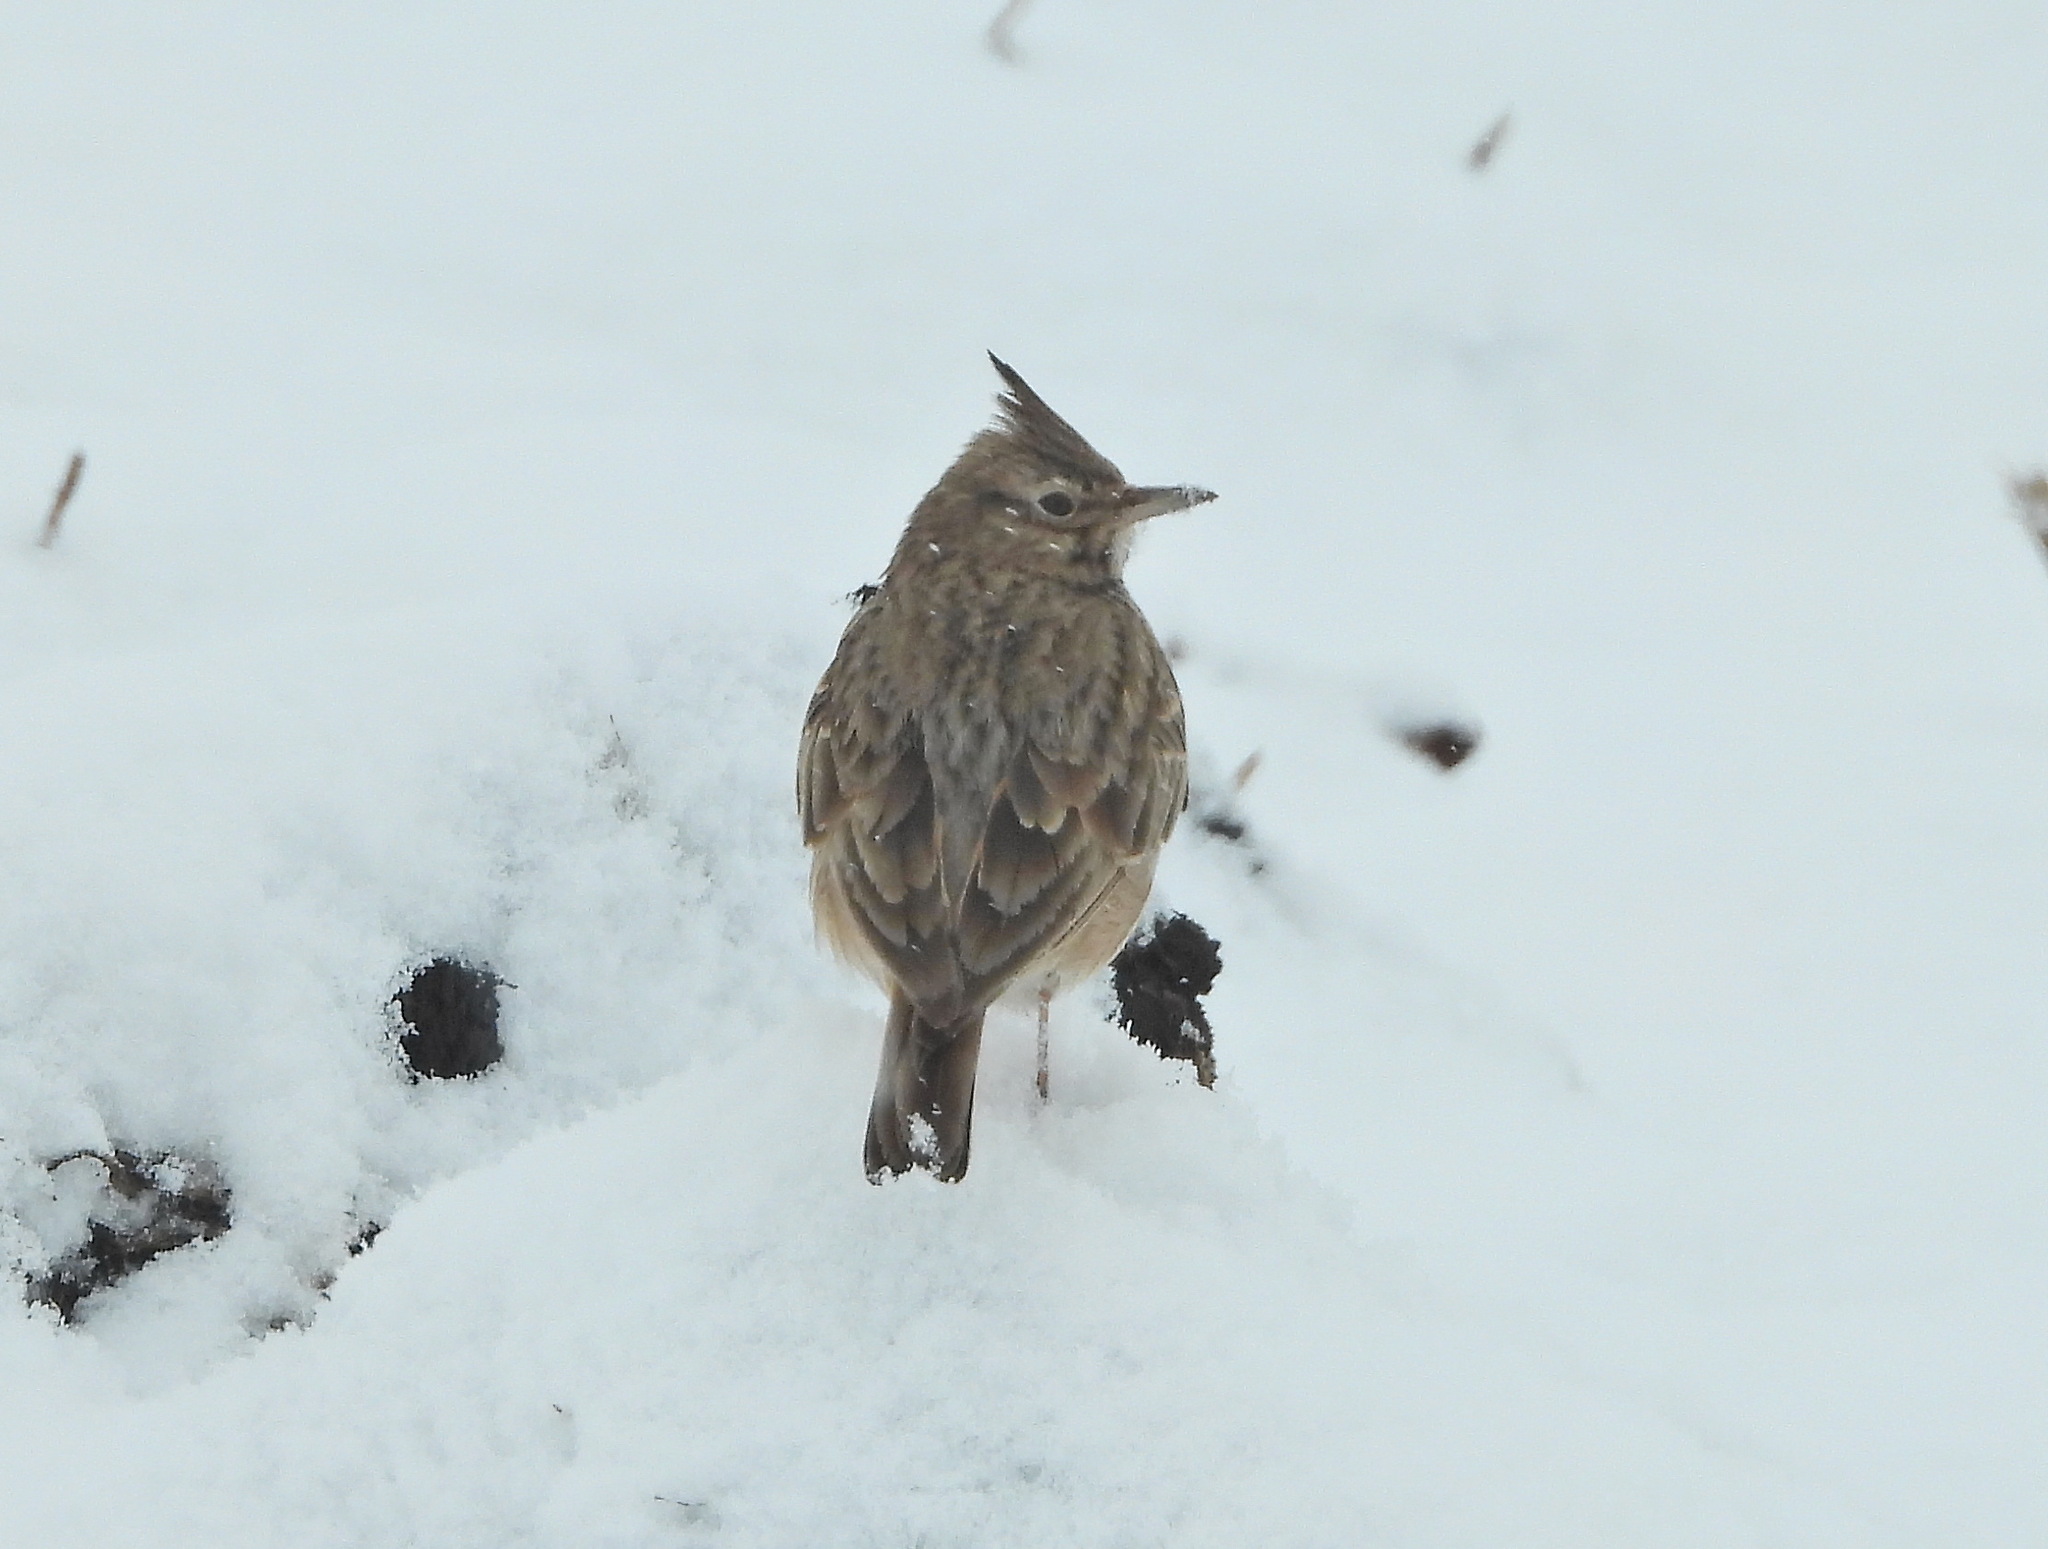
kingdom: Animalia
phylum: Chordata
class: Aves
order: Passeriformes
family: Alaudidae
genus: Galerida
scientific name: Galerida cristata
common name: Crested lark
